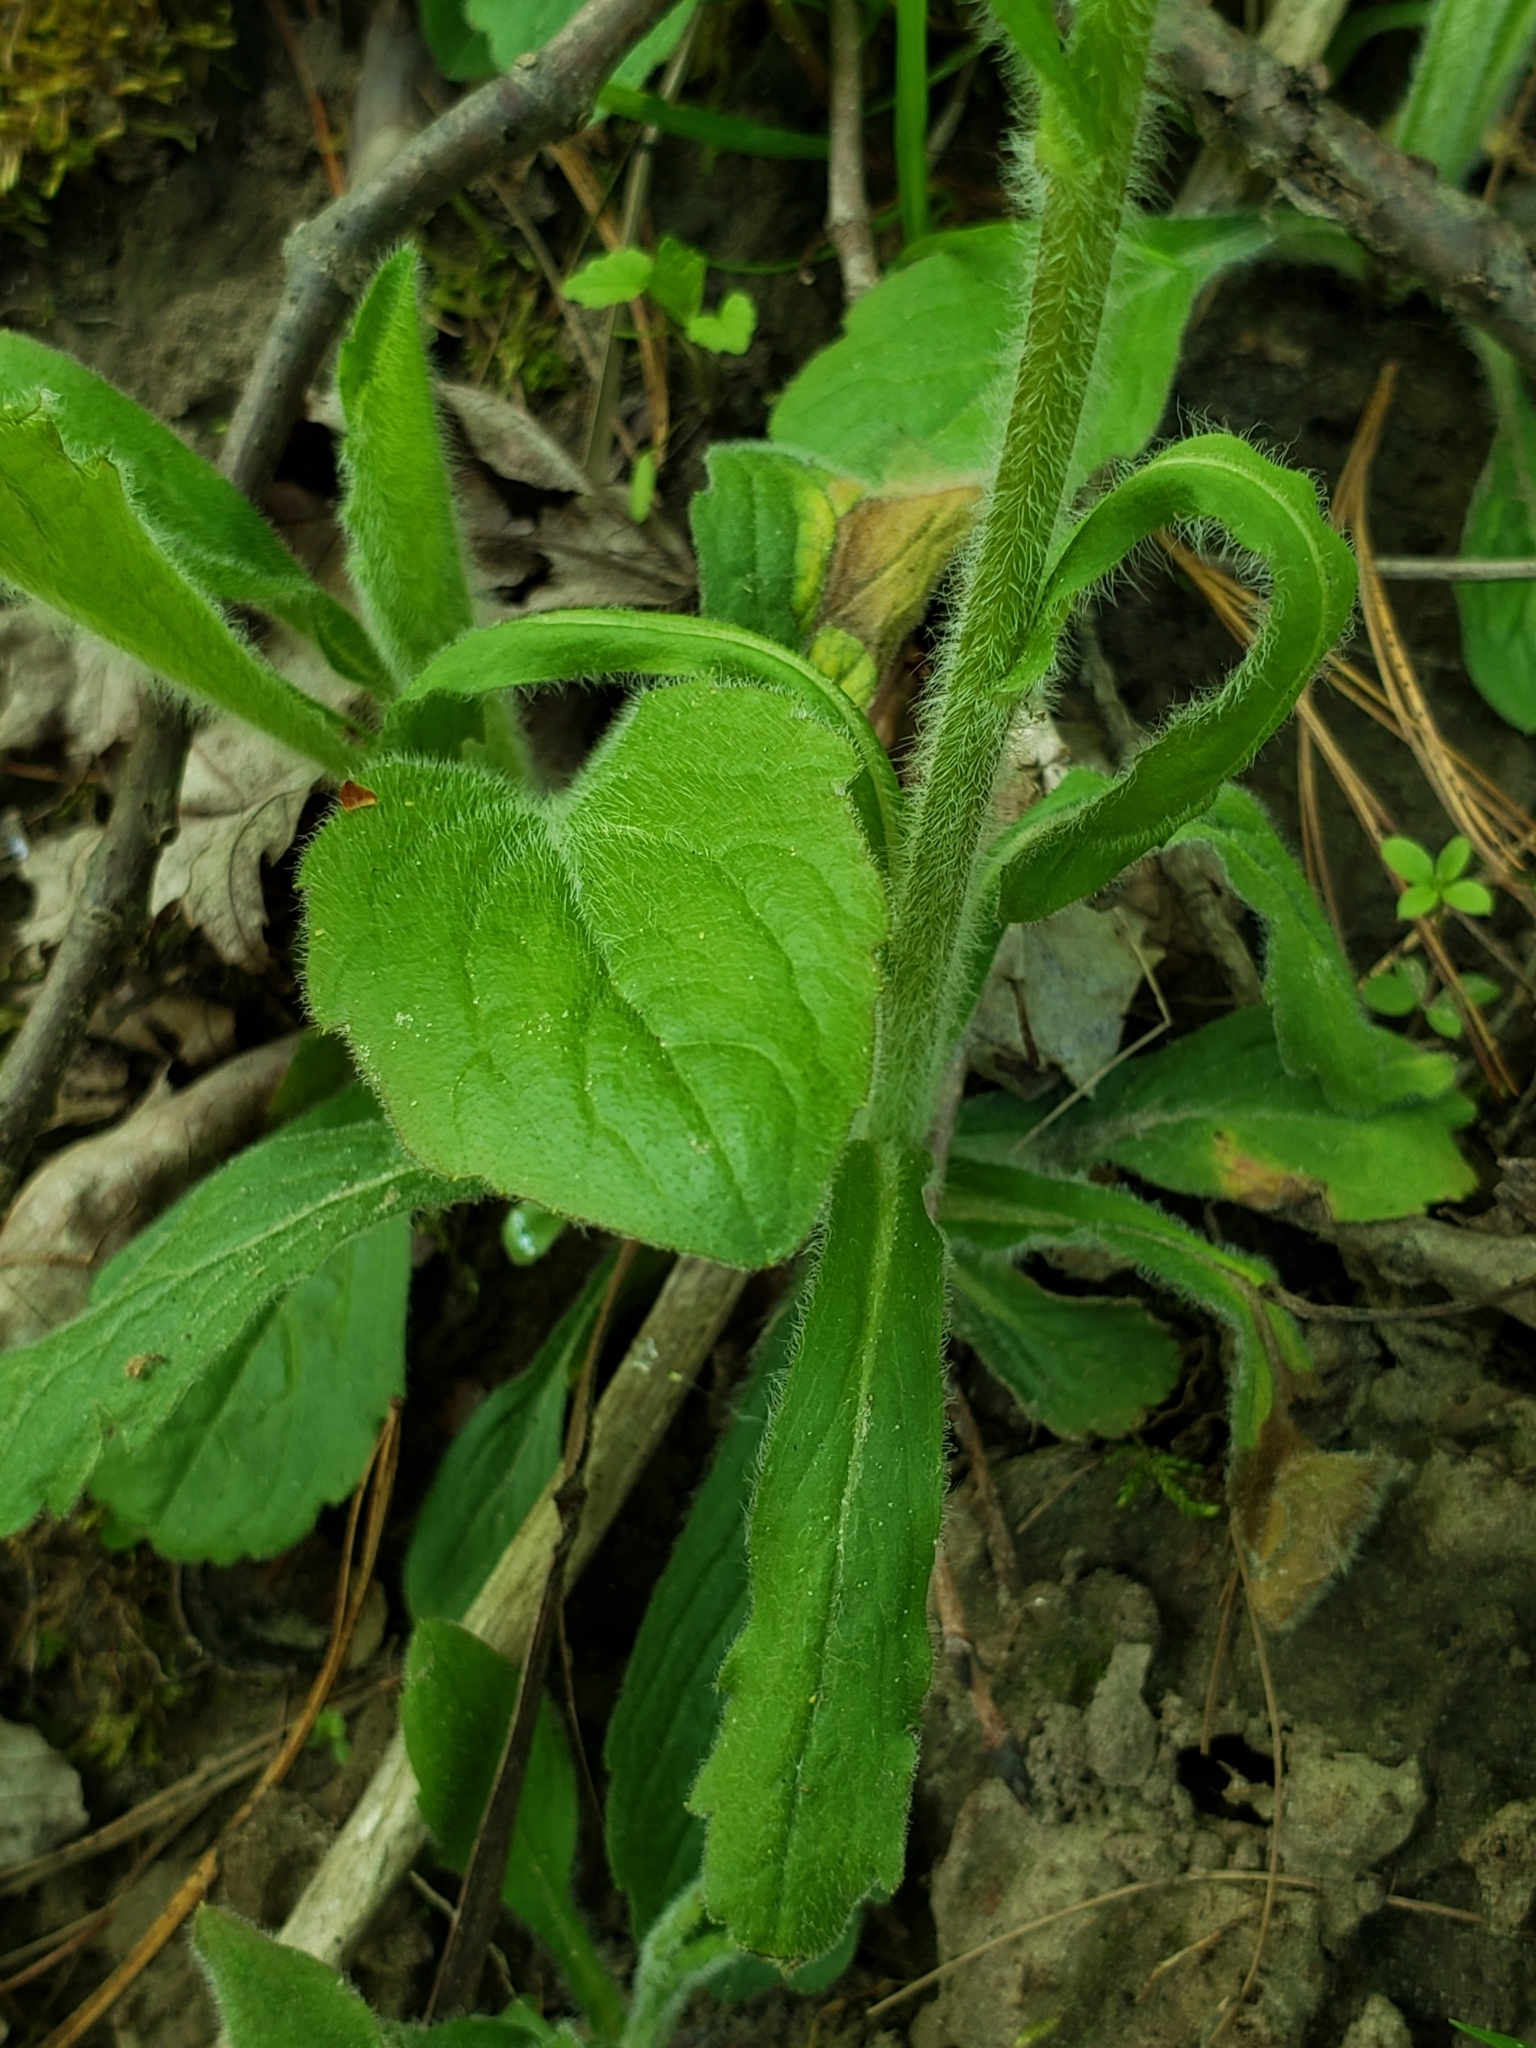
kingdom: Plantae
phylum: Tracheophyta
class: Magnoliopsida
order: Asterales
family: Asteraceae
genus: Erigeron
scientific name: Erigeron pulchellus
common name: Hairy fleabane
